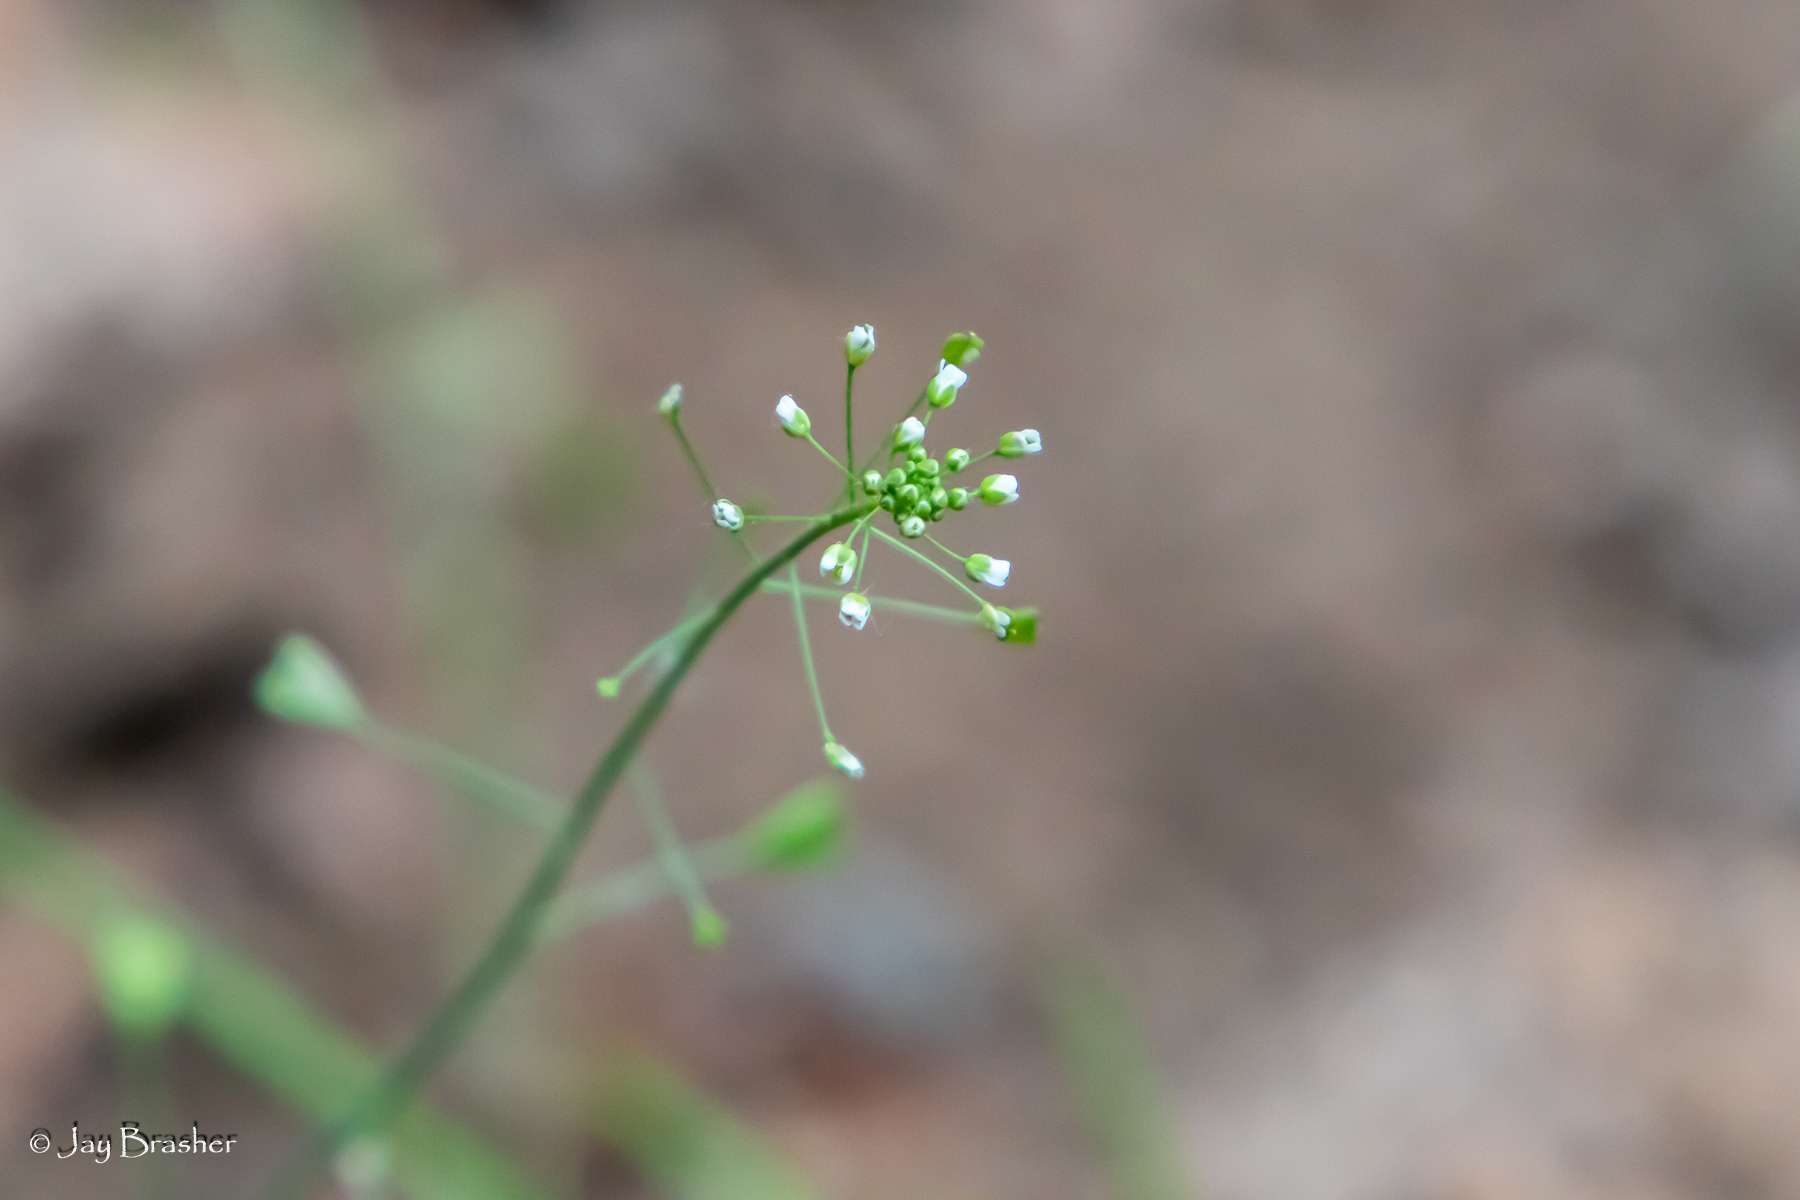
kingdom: Plantae
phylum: Tracheophyta
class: Magnoliopsida
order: Brassicales
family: Brassicaceae
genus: Capsella
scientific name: Capsella bursa-pastoris
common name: Shepherd's purse
